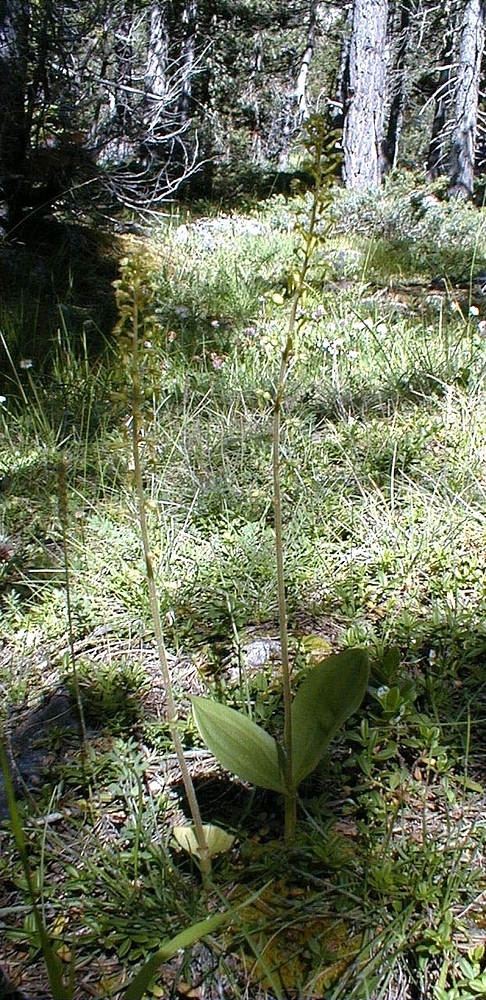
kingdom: Plantae
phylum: Tracheophyta
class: Liliopsida
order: Asparagales
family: Orchidaceae
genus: Neottia
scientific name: Neottia ovata
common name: Common twayblade
